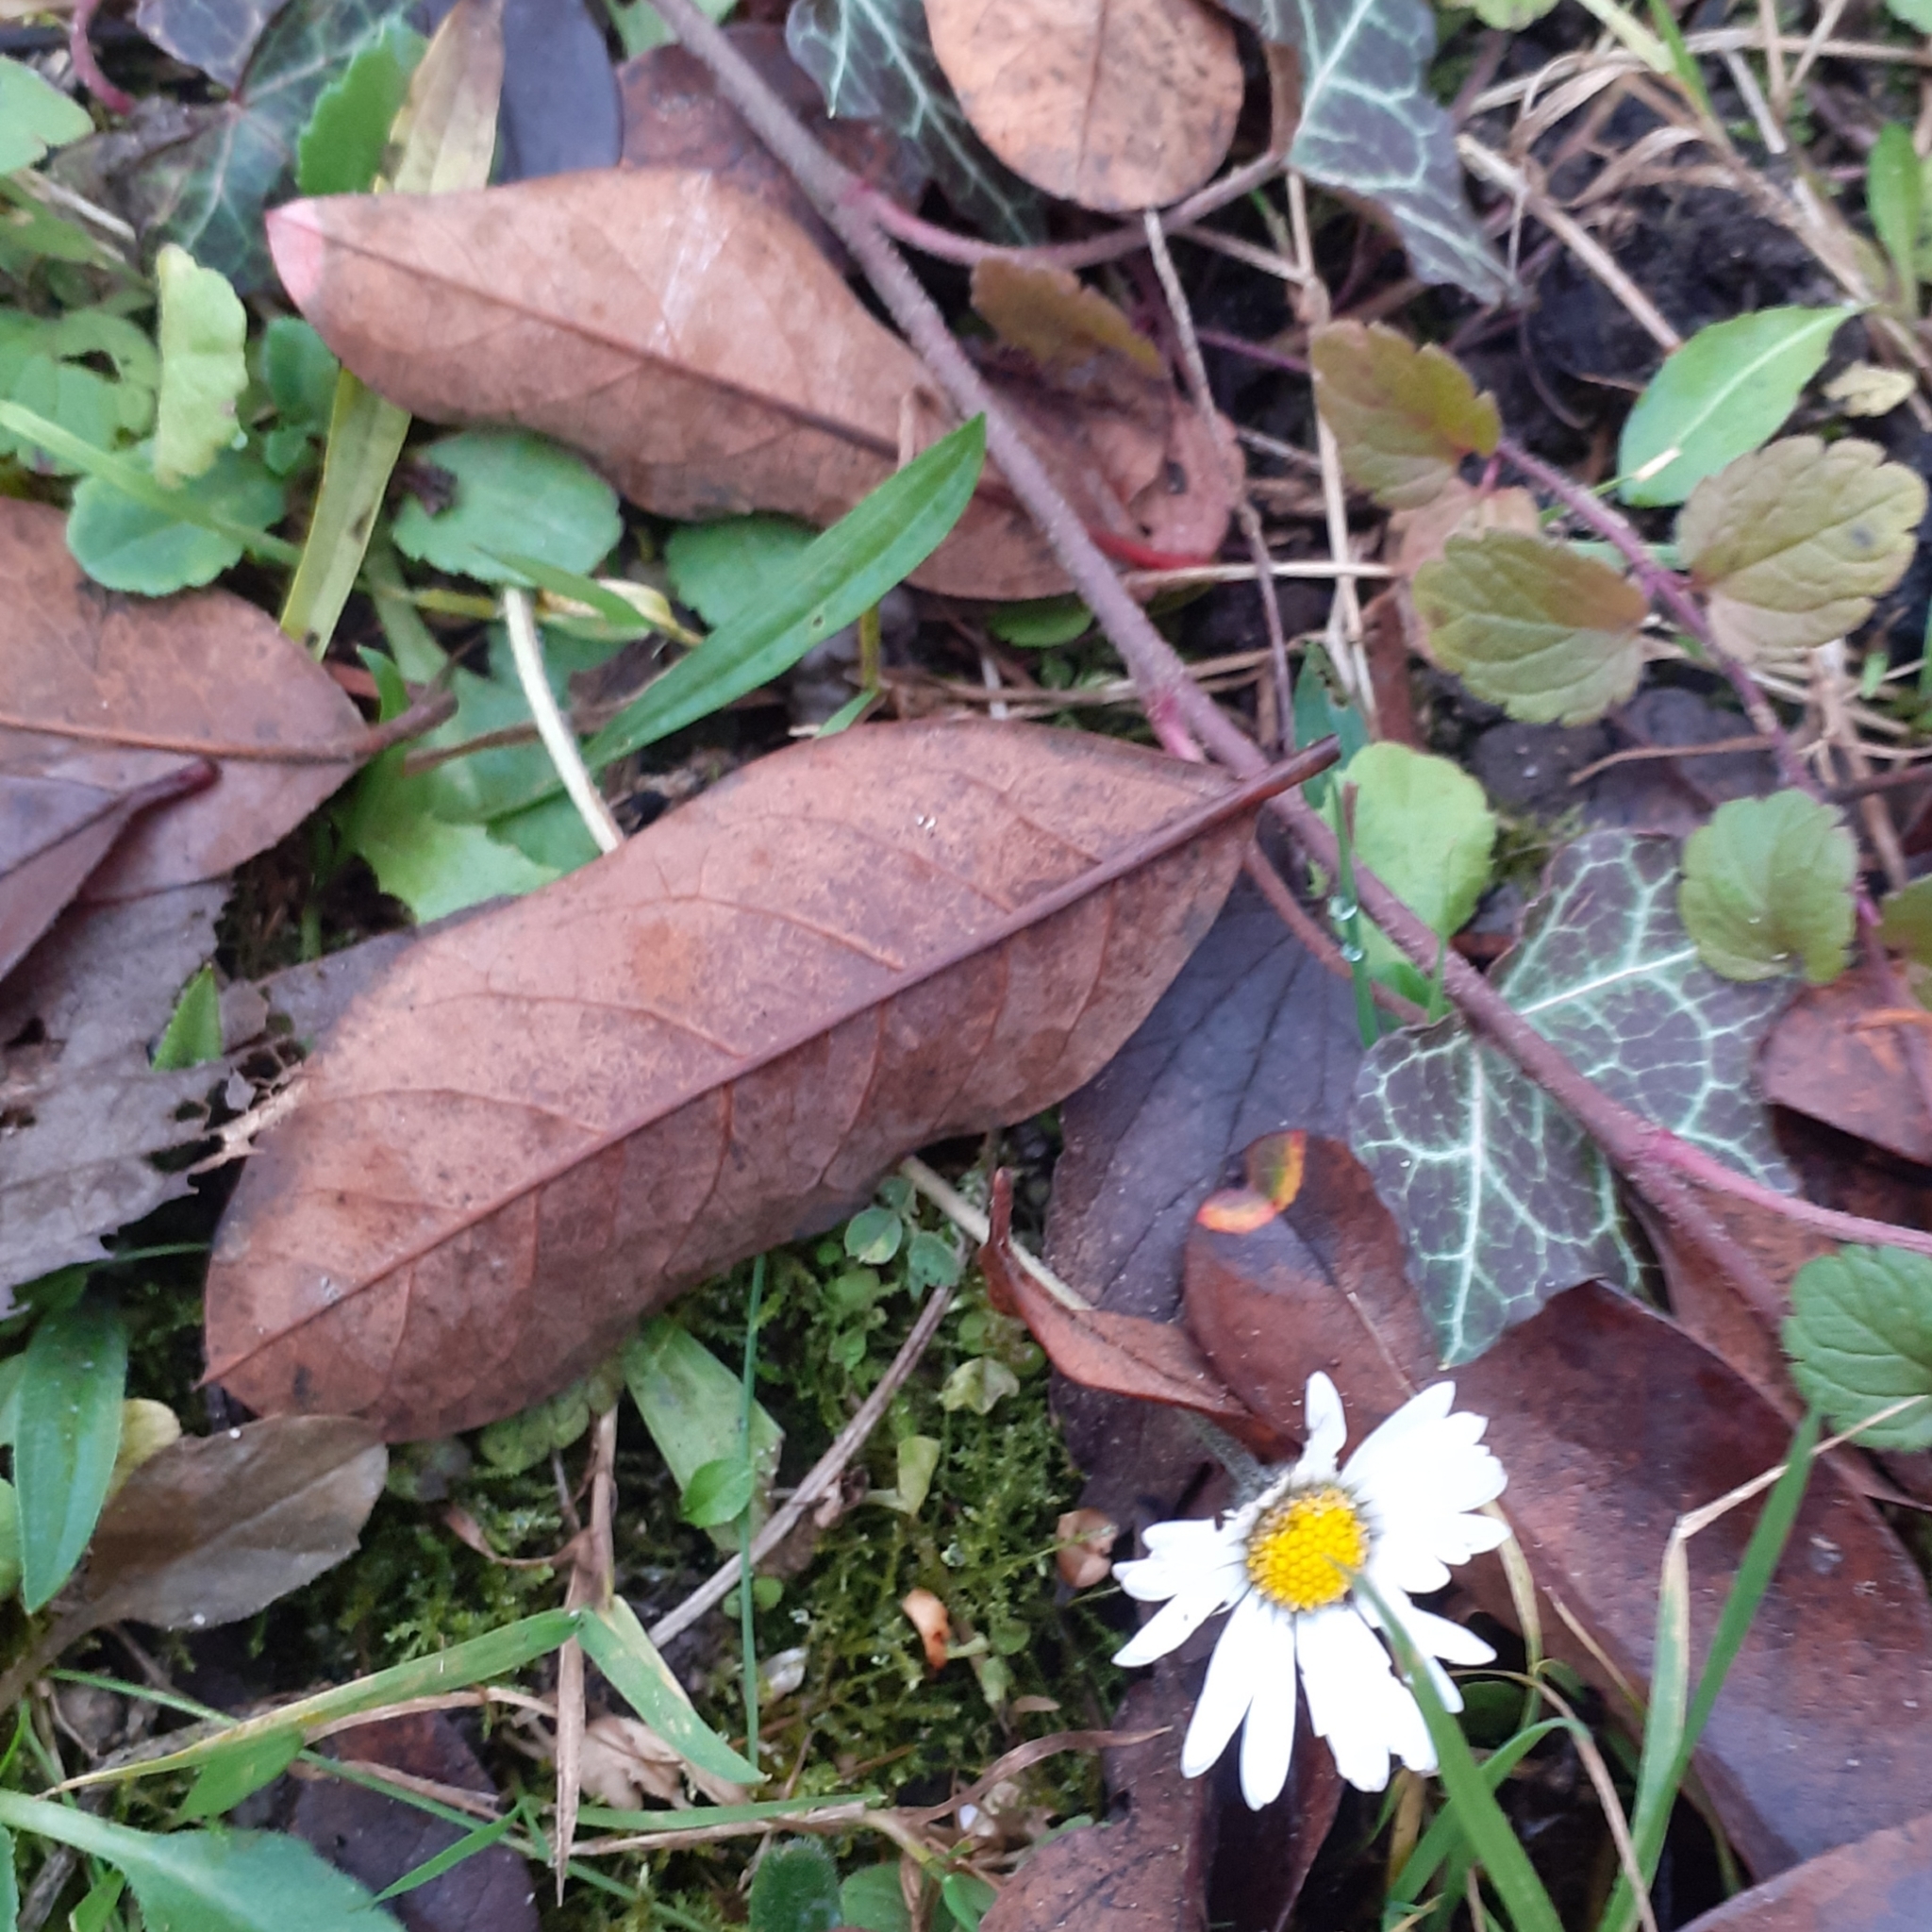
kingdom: Plantae
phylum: Tracheophyta
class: Magnoliopsida
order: Asterales
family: Asteraceae
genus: Bellis
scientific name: Bellis perennis
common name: Lawndaisy
